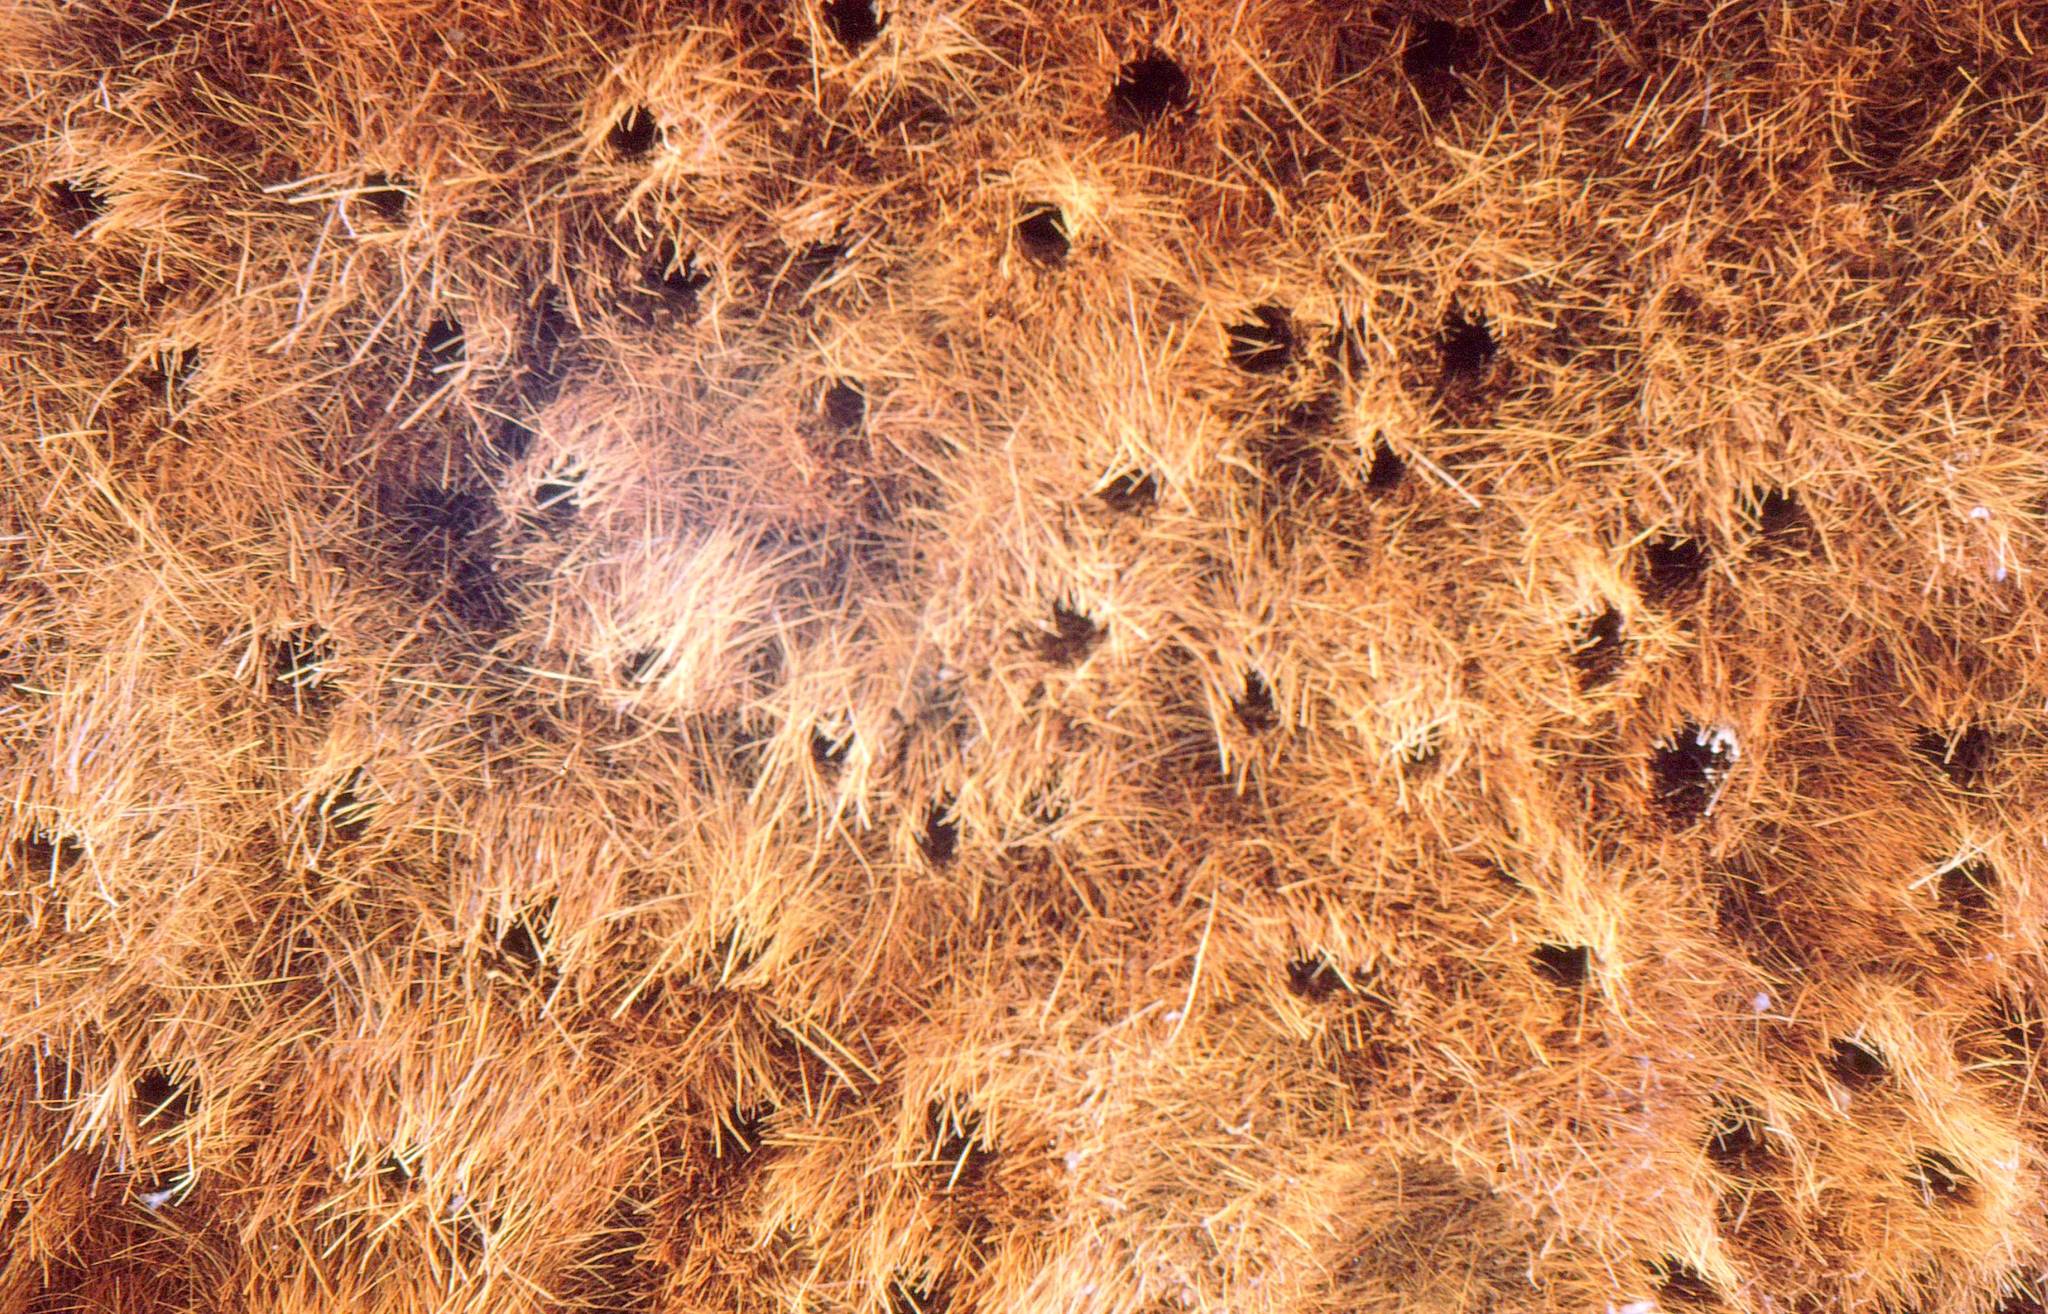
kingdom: Animalia
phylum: Chordata
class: Aves
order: Passeriformes
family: Passeridae
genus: Philetairus
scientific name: Philetairus socius
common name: Sociable weaver
